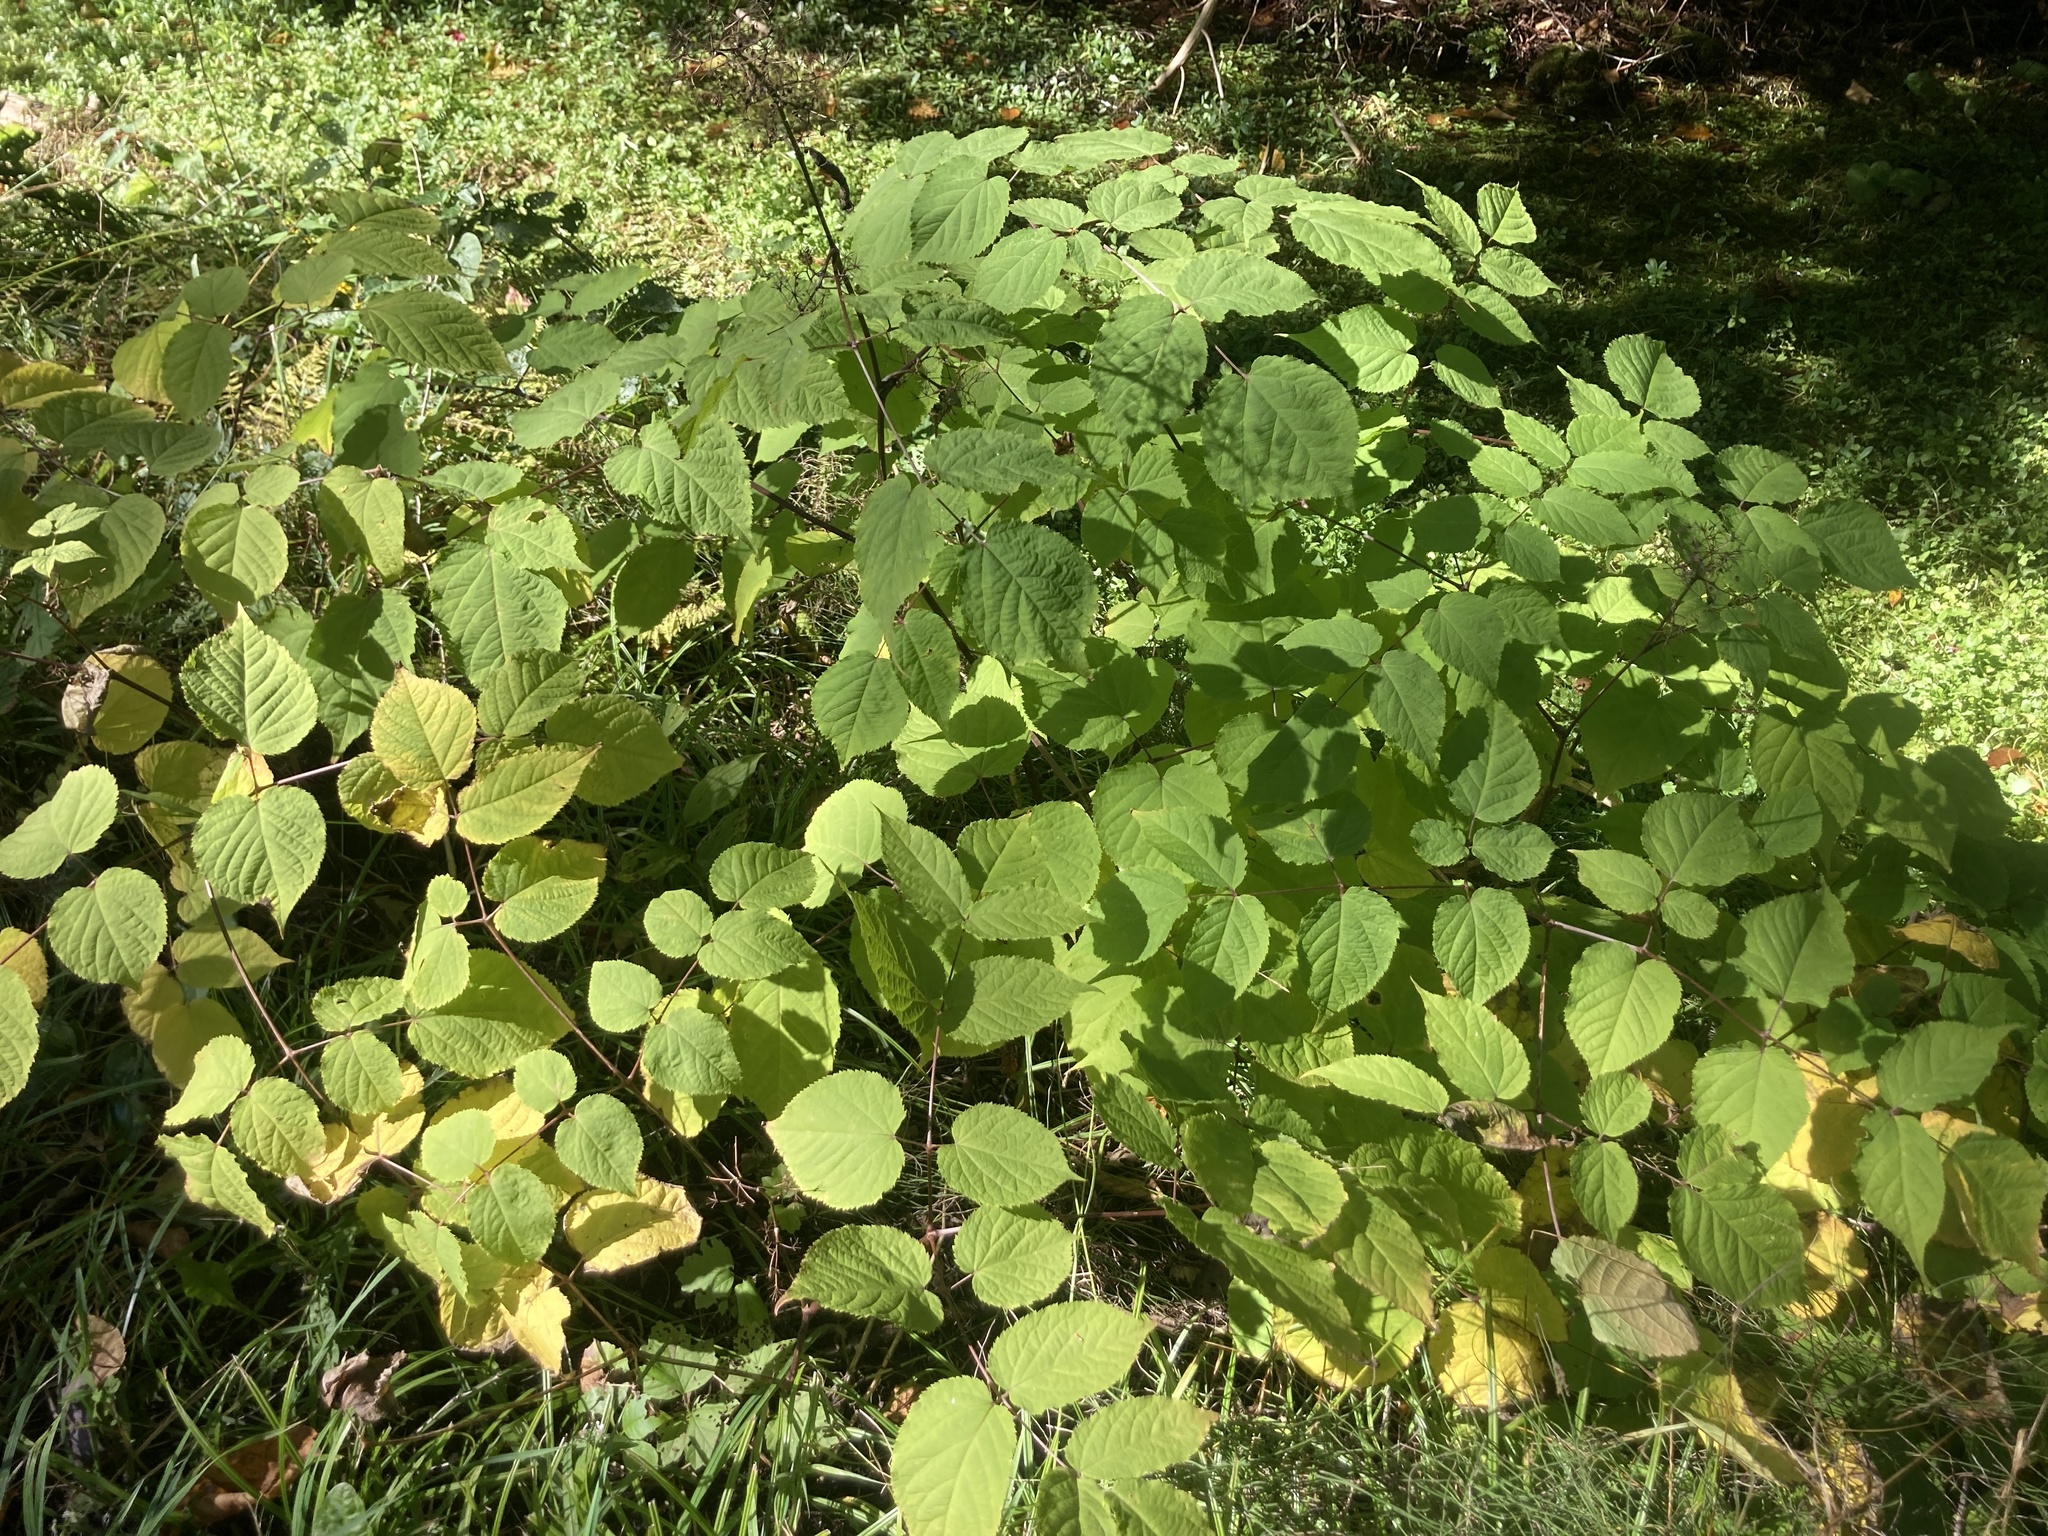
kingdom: Plantae
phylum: Tracheophyta
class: Magnoliopsida
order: Apiales
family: Araliaceae
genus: Aralia
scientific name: Aralia racemosa
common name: American-spikenard
